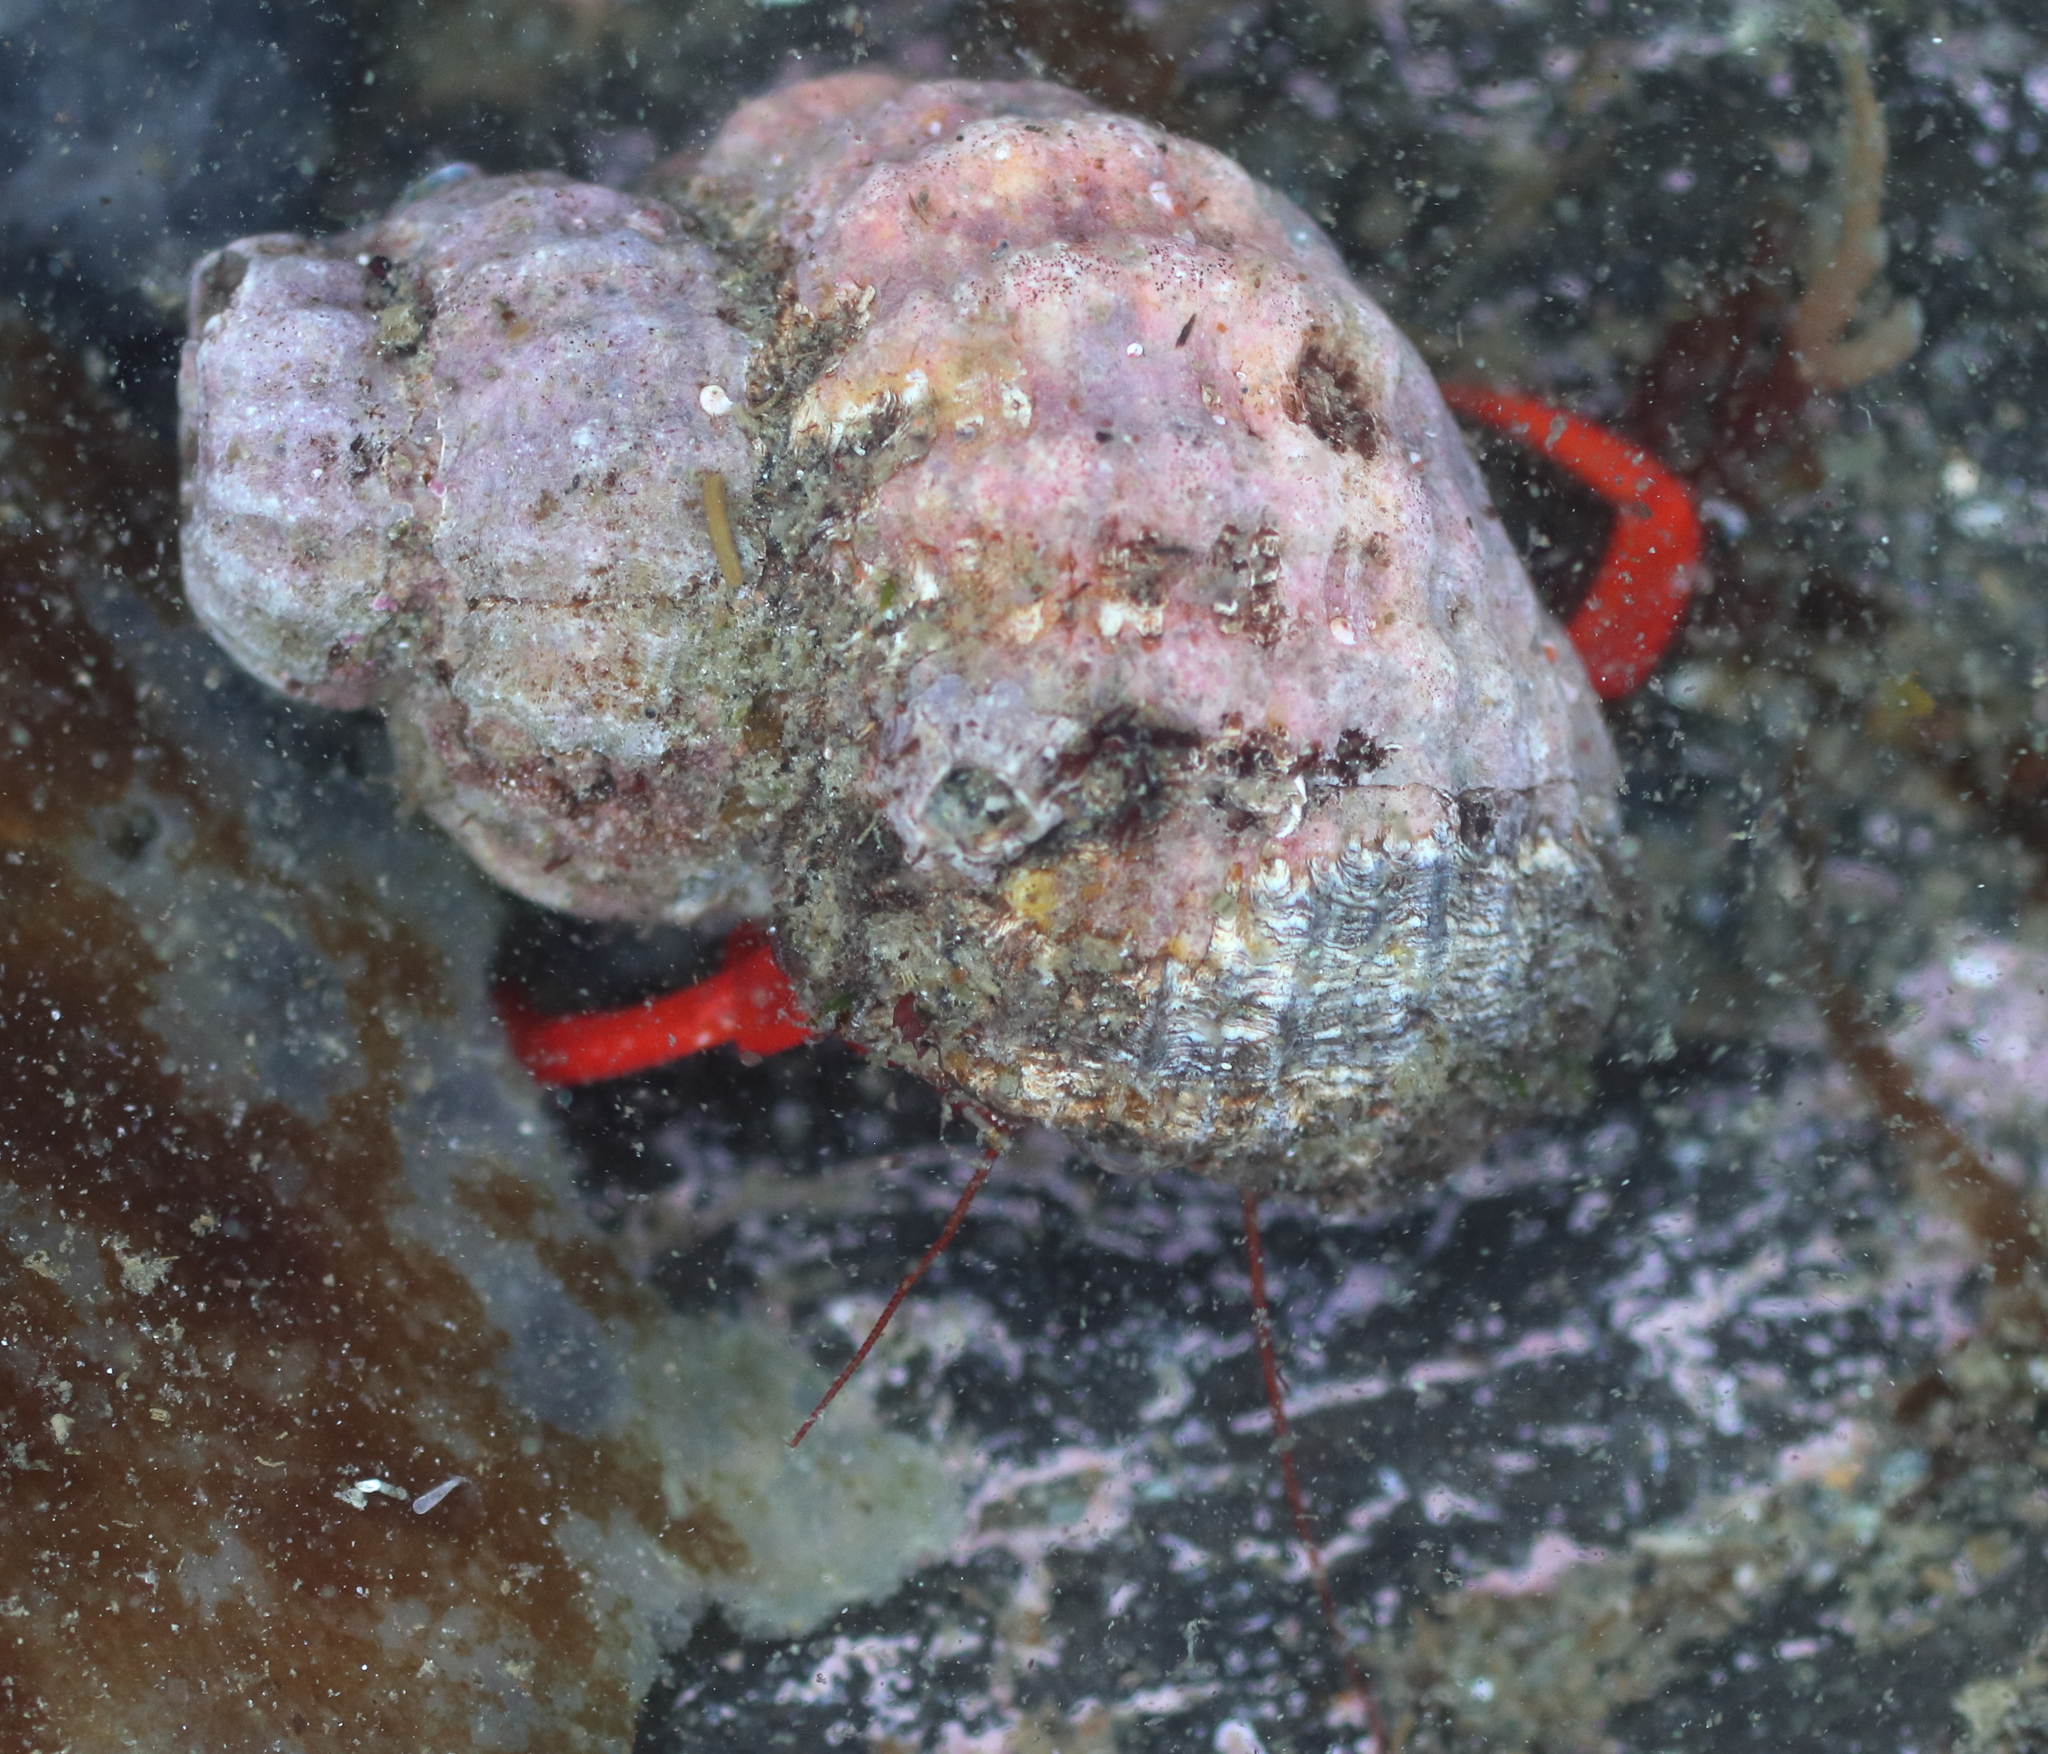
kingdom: Animalia
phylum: Arthropoda
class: Malacostraca
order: Decapoda
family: Paguridae
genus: Elassochirus
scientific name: Elassochirus gilli
